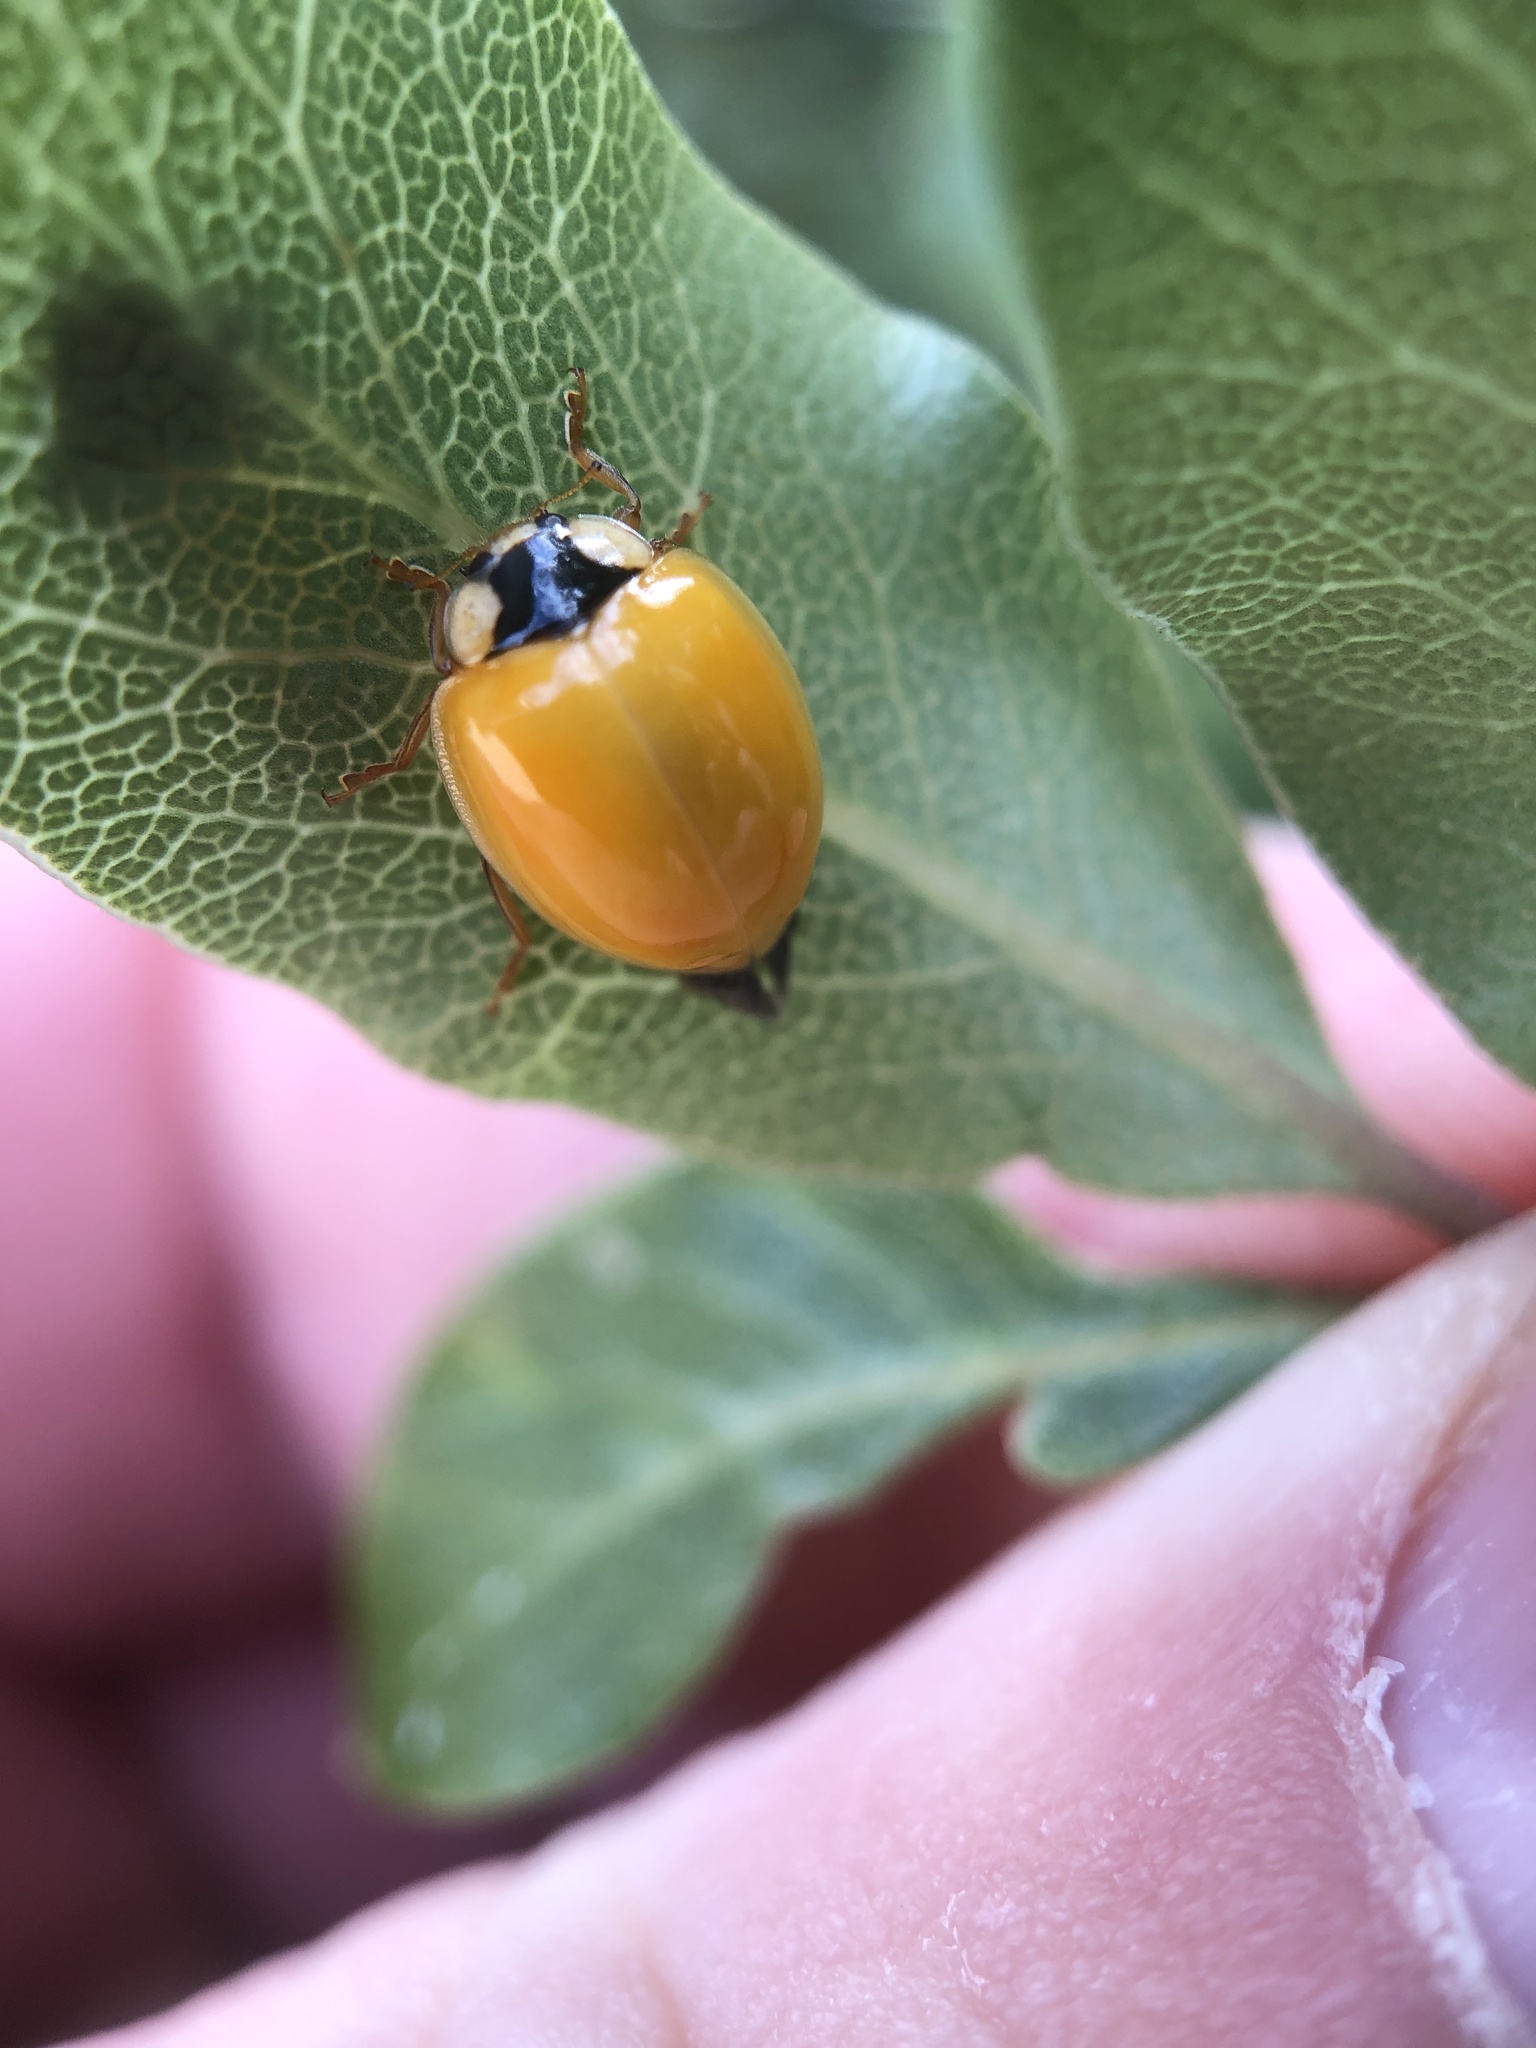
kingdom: Animalia
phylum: Arthropoda
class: Insecta
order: Coleoptera
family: Coccinellidae
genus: Harmonia
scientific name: Harmonia axyridis
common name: Harlequin ladybird
